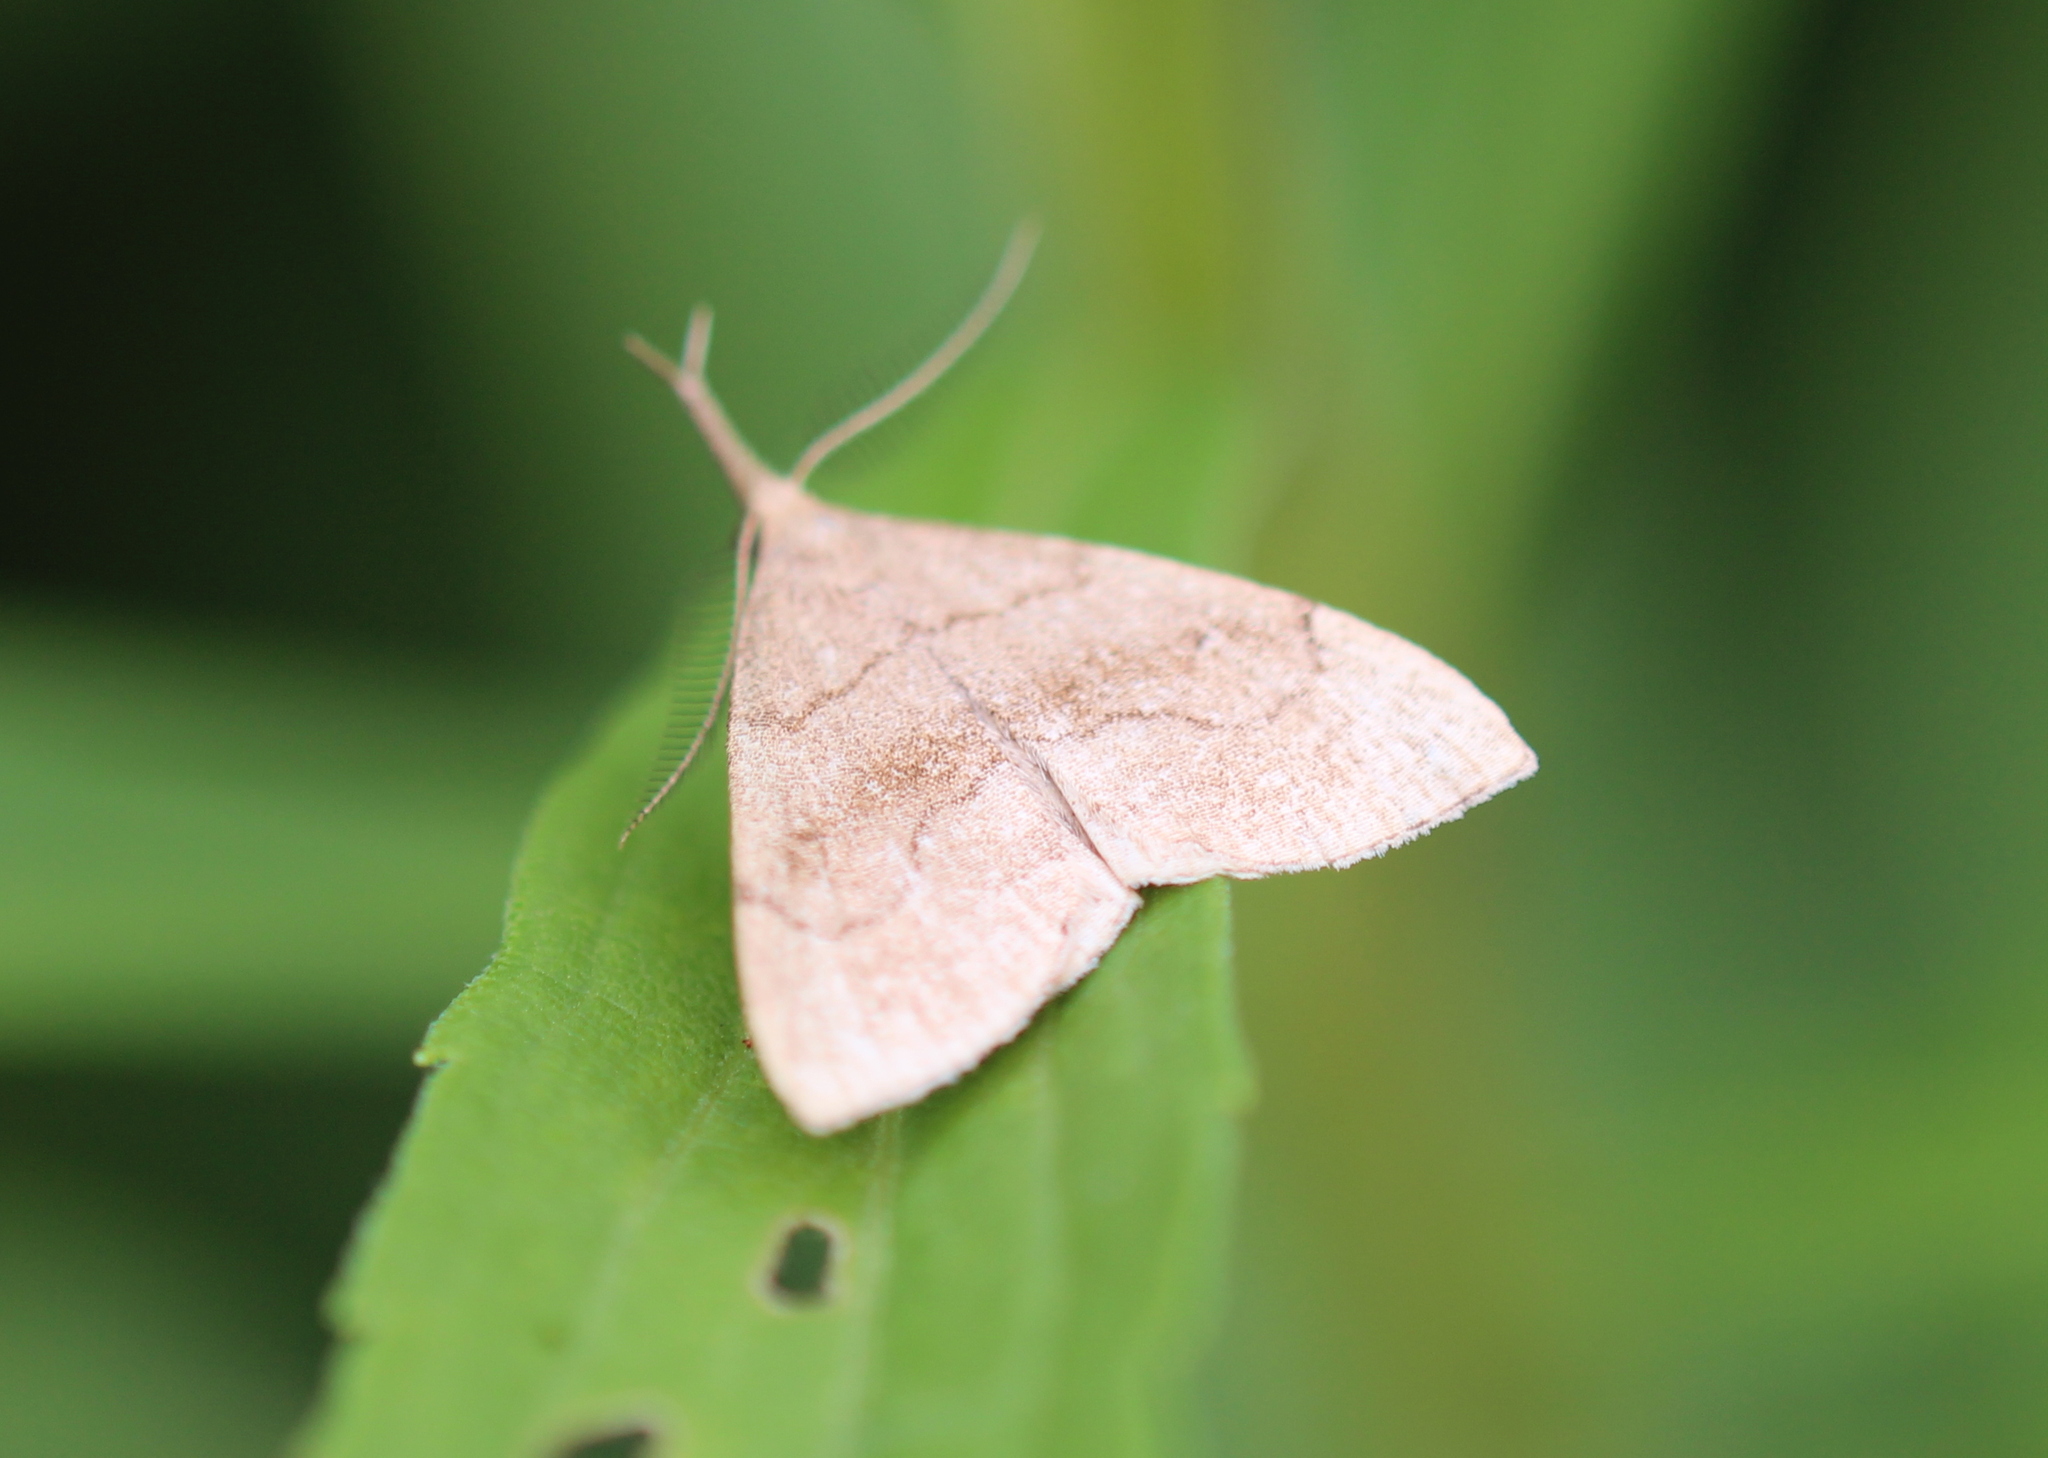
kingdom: Animalia
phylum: Arthropoda
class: Insecta
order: Lepidoptera
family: Erebidae
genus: Phalaenostola
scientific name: Phalaenostola metonalis
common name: Pale phalaenostola moth
